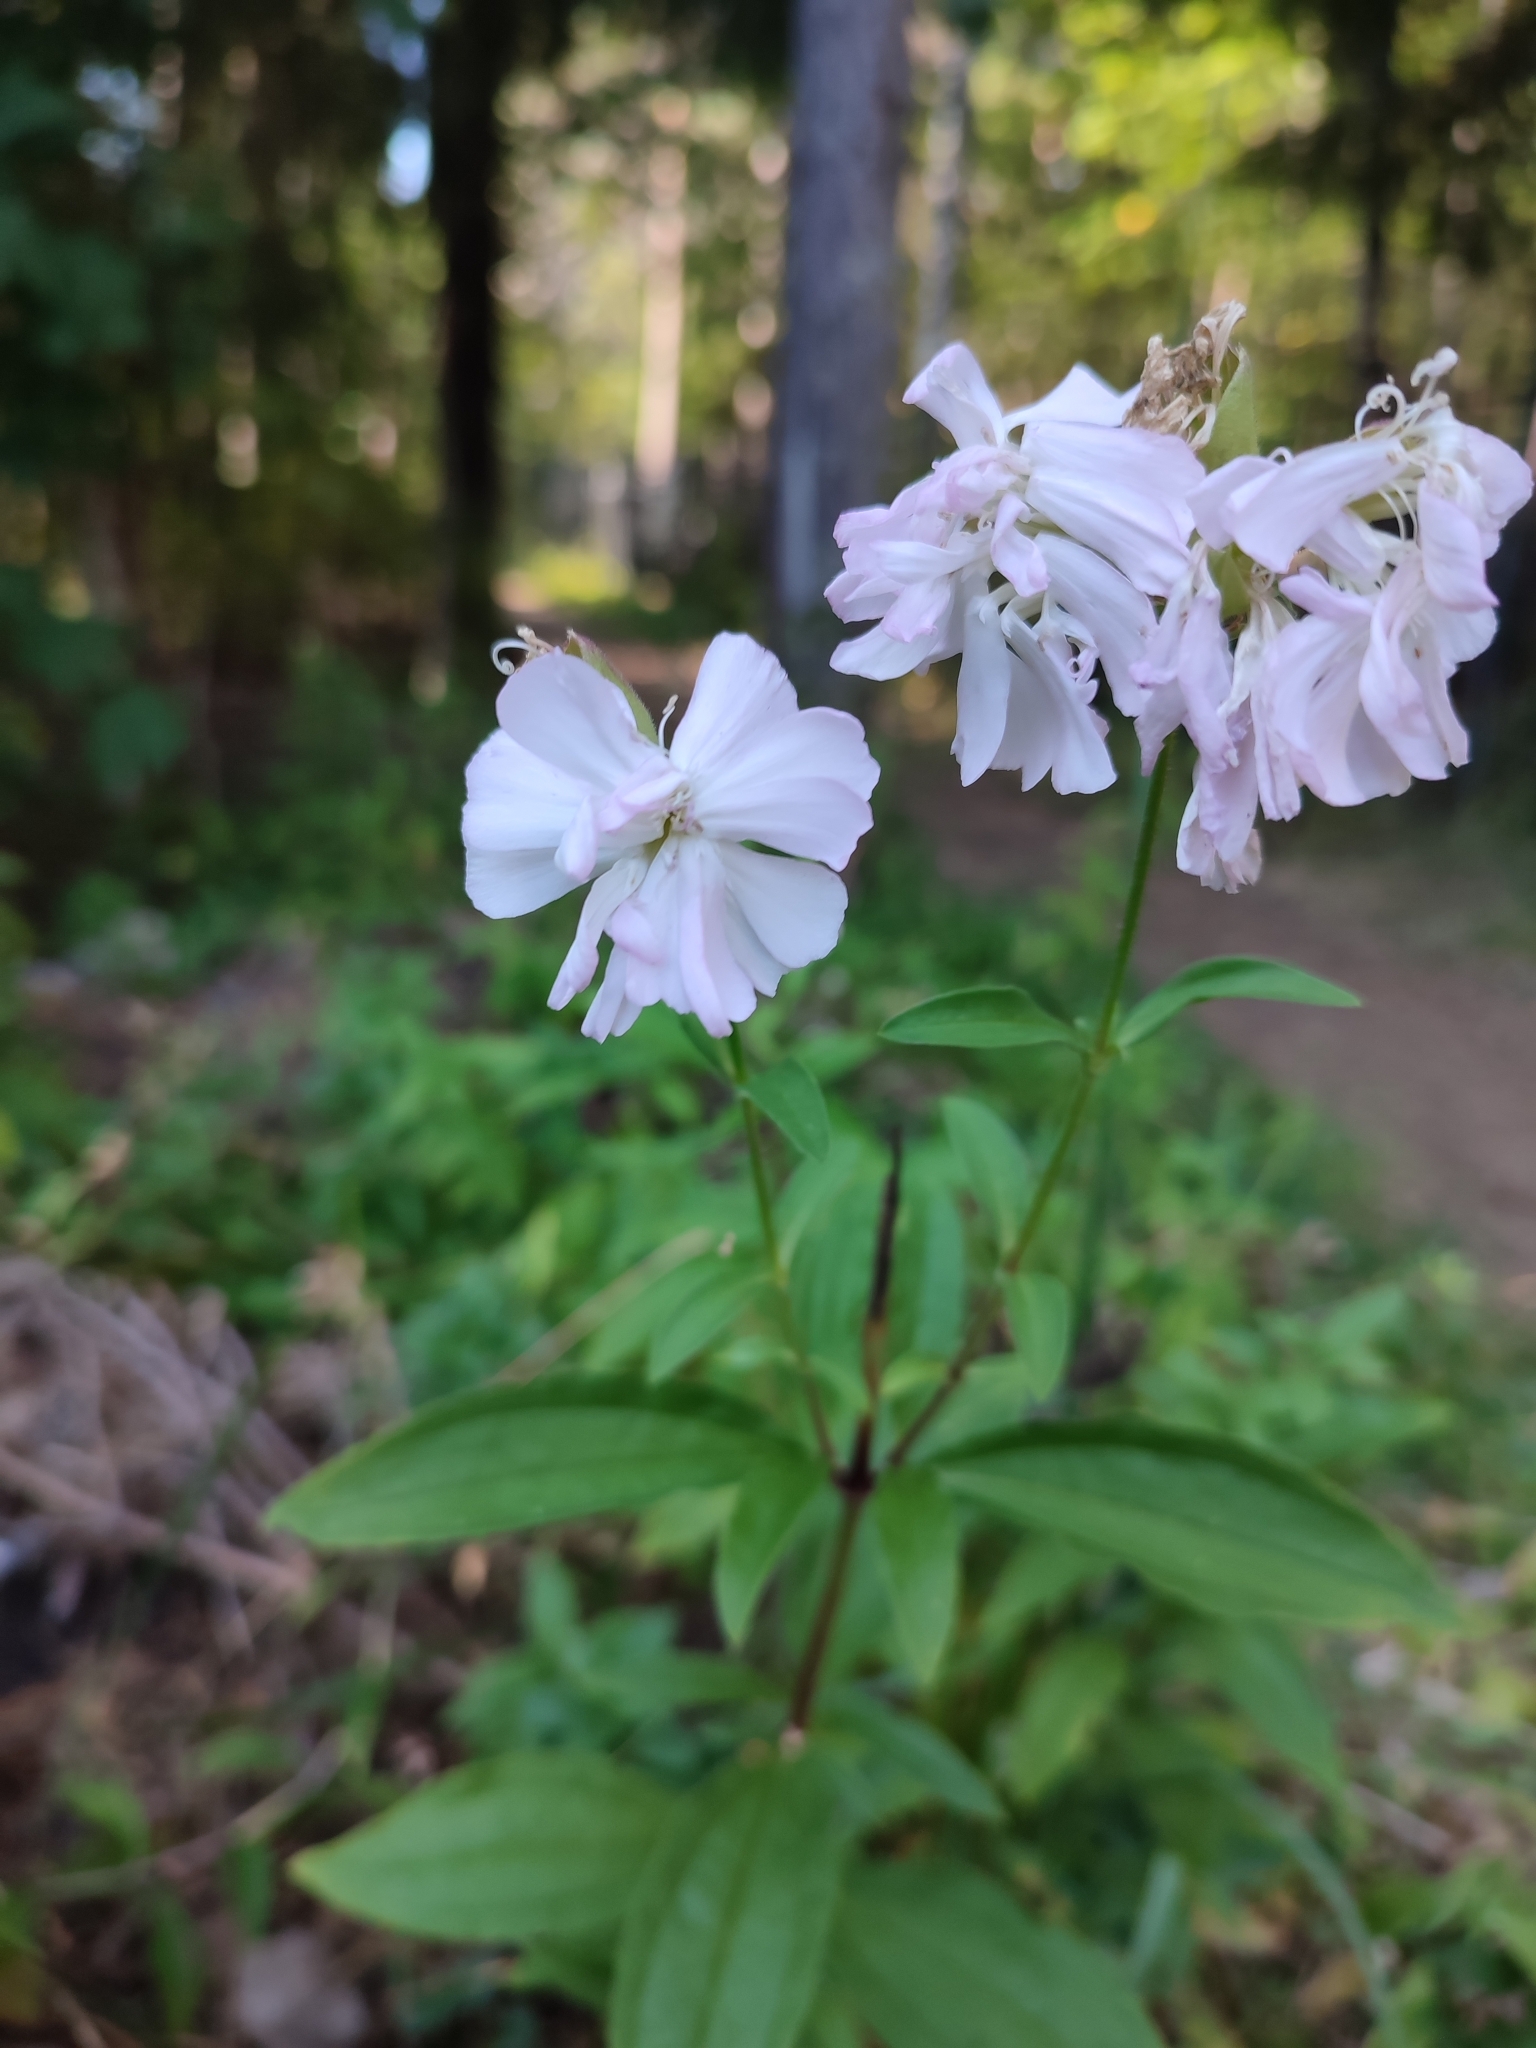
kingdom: Plantae
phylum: Tracheophyta
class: Magnoliopsida
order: Caryophyllales
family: Caryophyllaceae
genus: Saponaria
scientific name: Saponaria officinalis
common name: Soapwort
